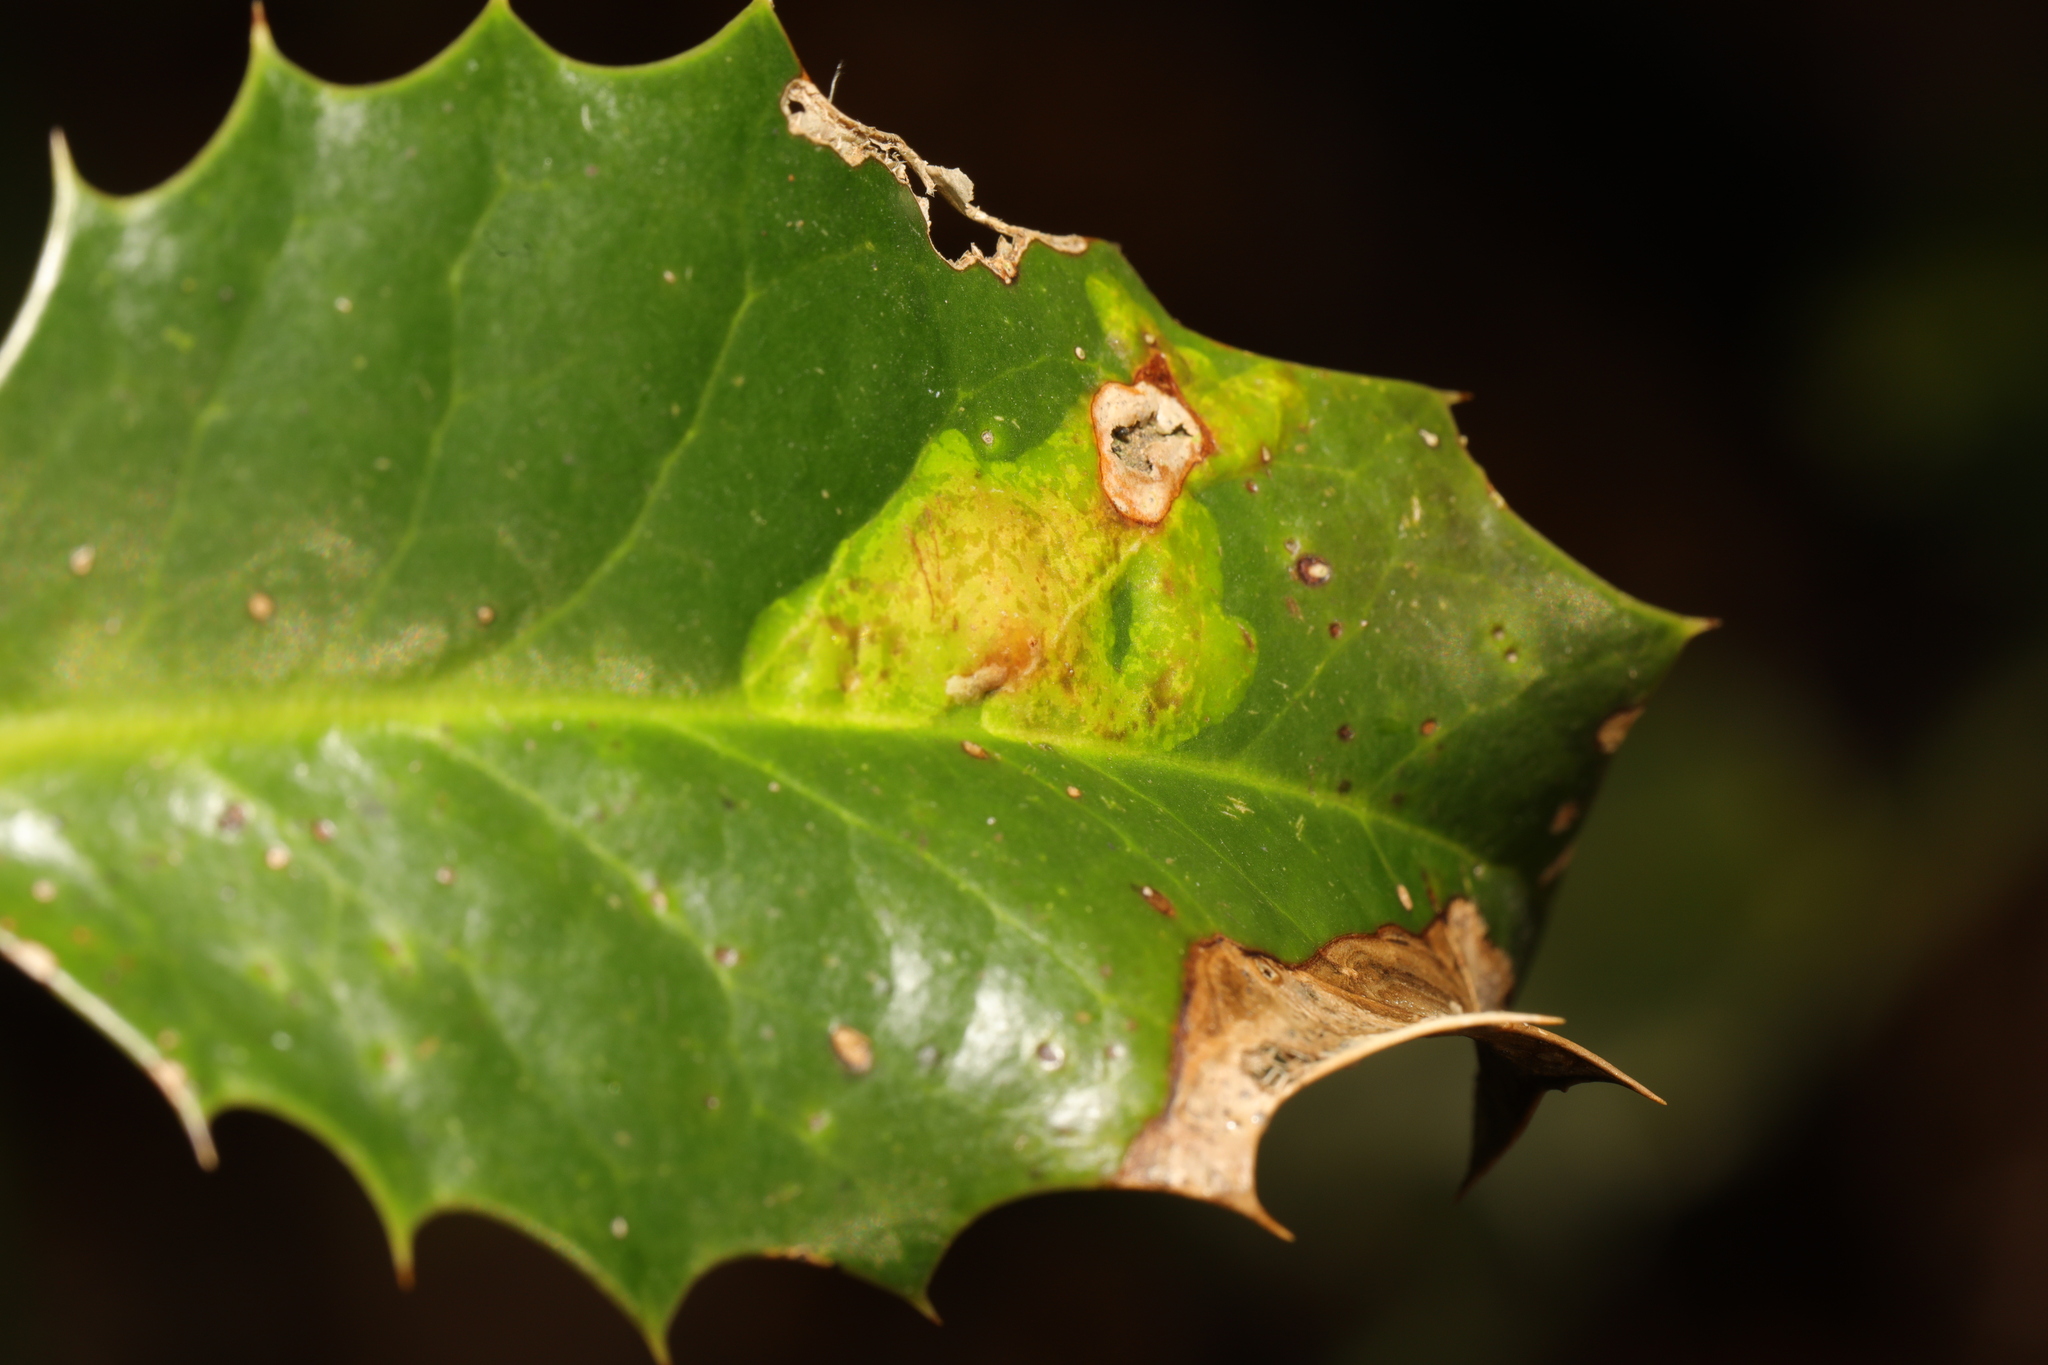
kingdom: Animalia
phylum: Arthropoda
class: Insecta
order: Diptera
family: Agromyzidae
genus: Phytomyza
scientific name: Phytomyza ilicis
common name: Holly leafminer
